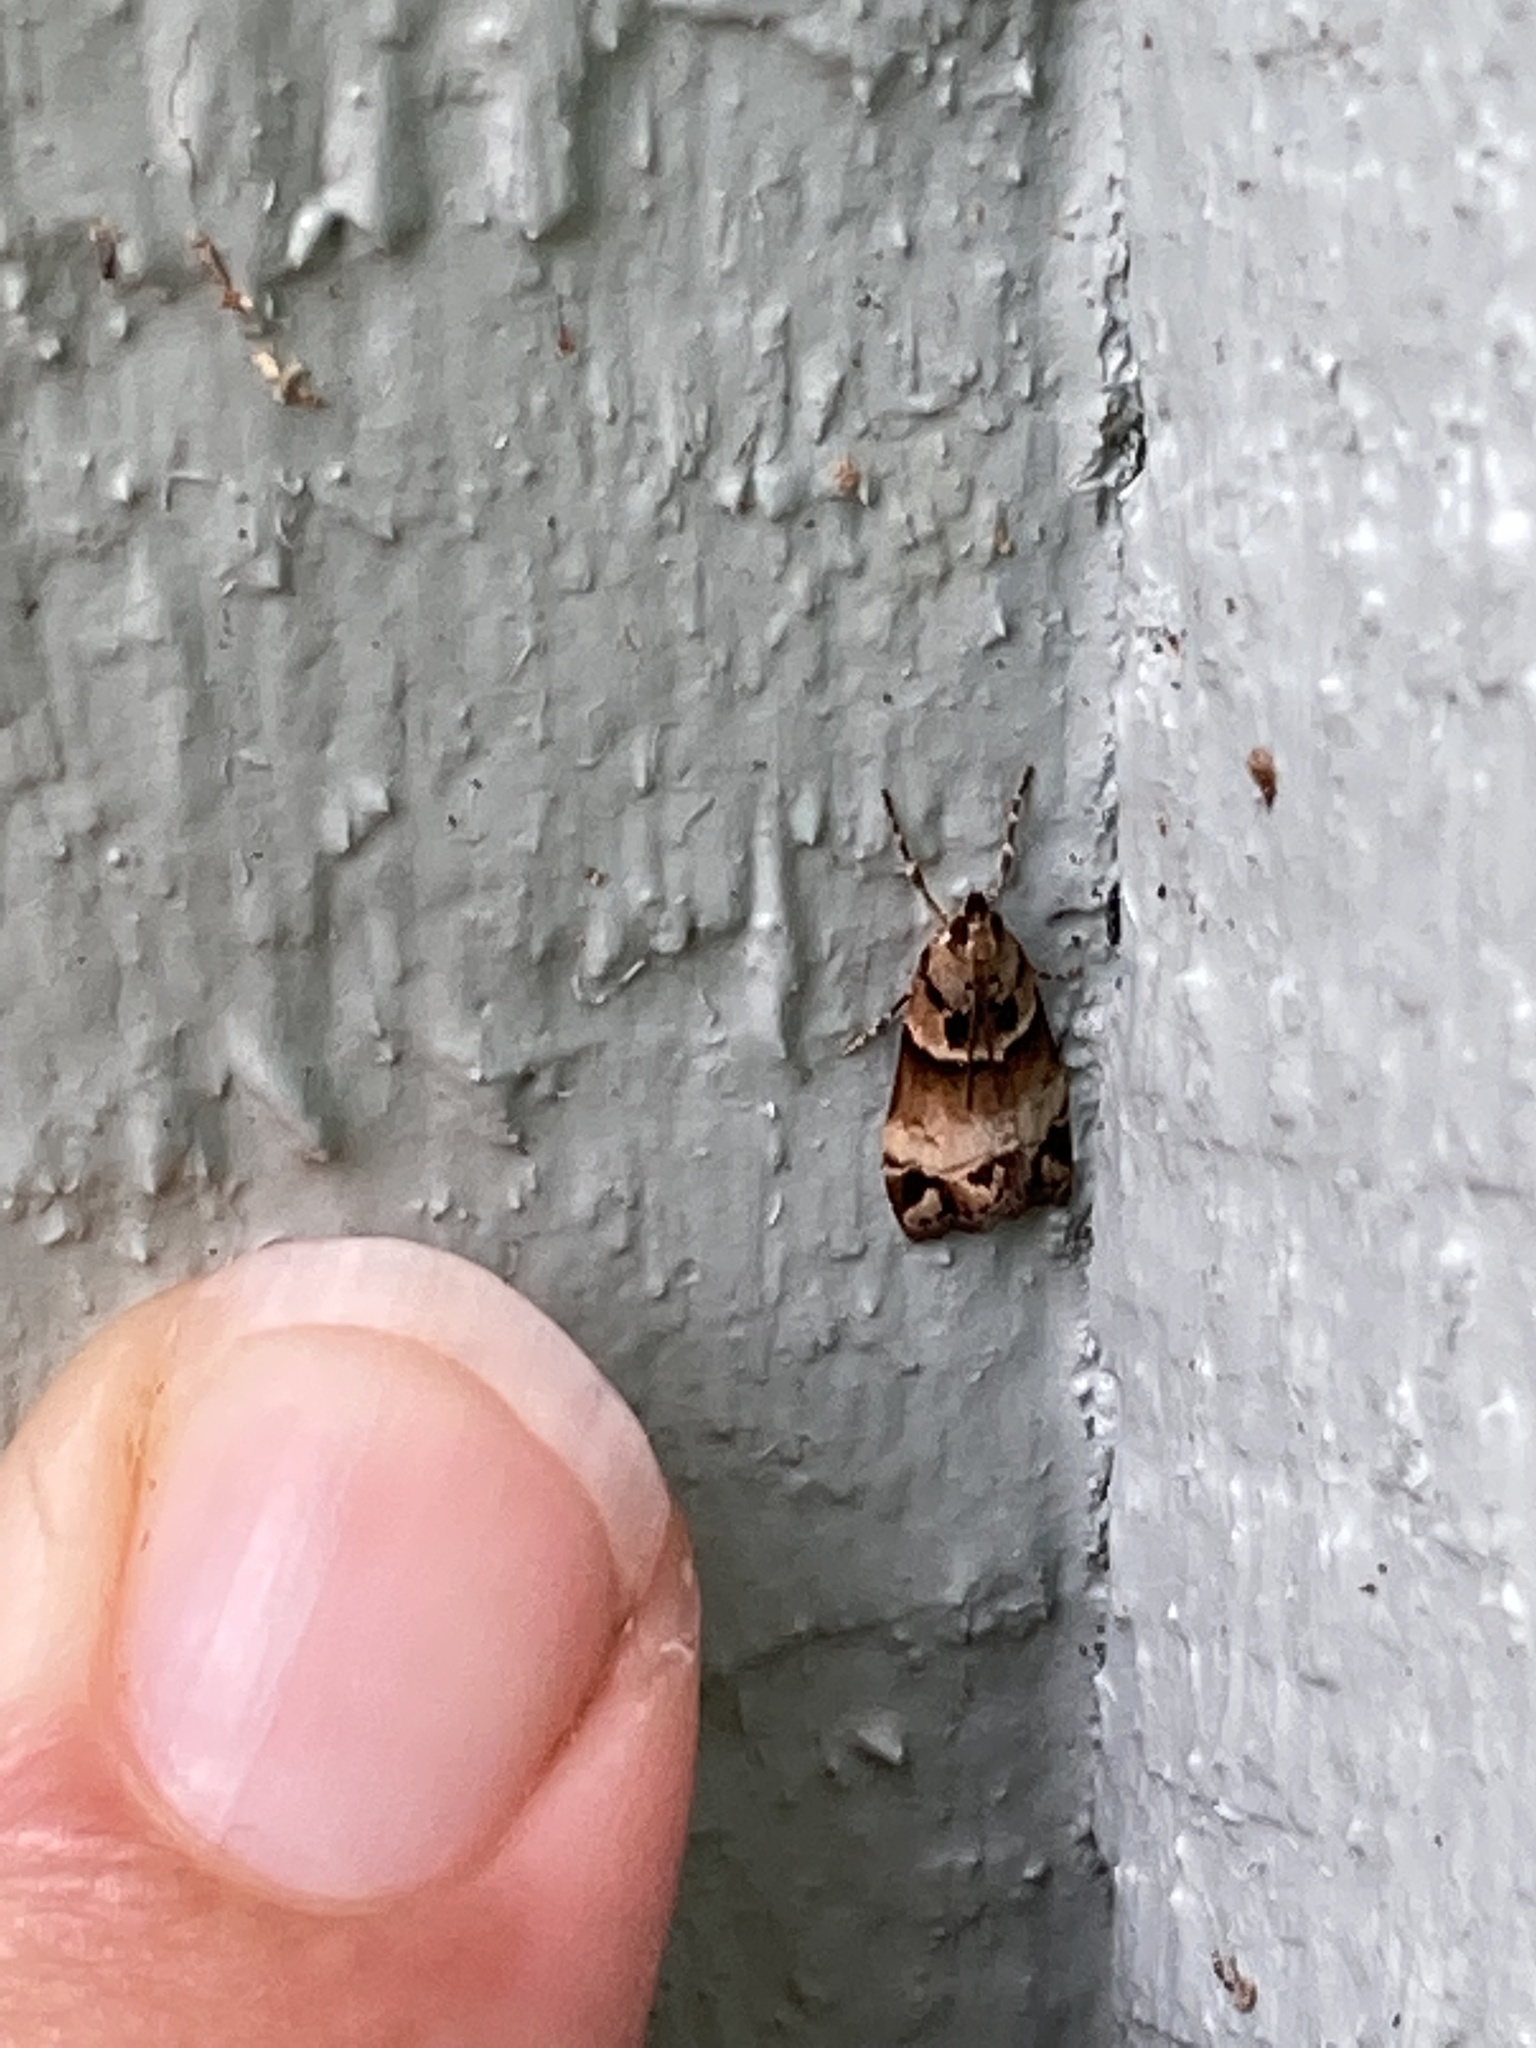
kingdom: Animalia
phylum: Arthropoda
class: Insecta
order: Lepidoptera
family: Crambidae
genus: Eudonia
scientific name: Eudonia periphanes
